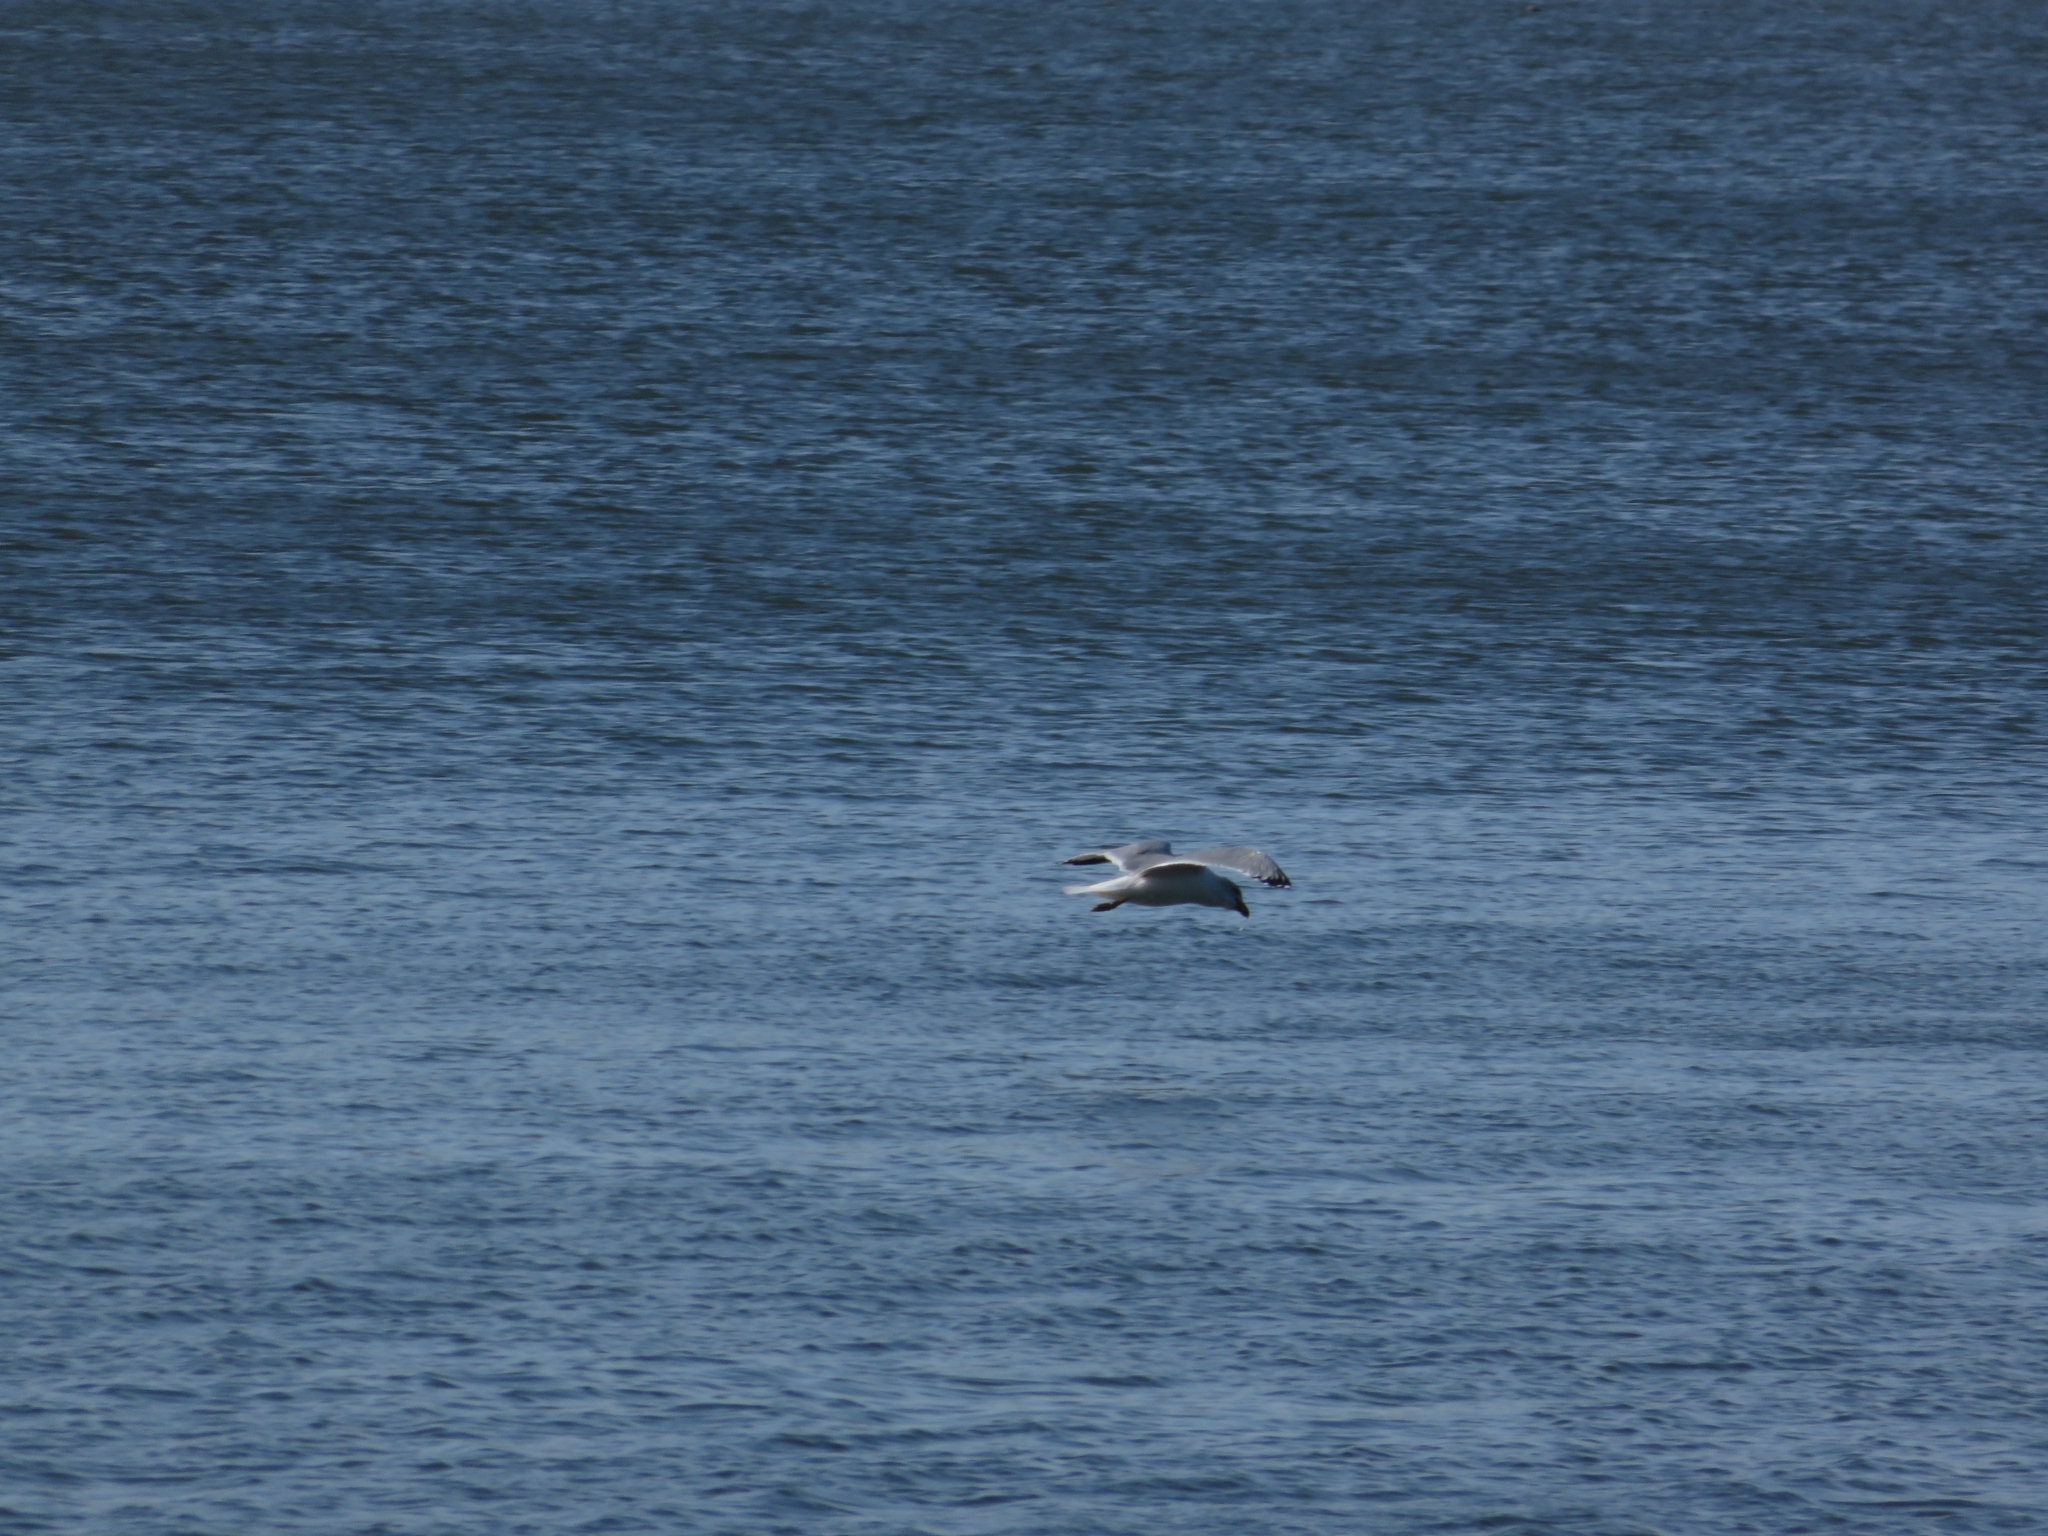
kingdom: Animalia
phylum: Chordata
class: Aves
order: Charadriiformes
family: Laridae
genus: Larus
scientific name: Larus delawarensis
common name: Ring-billed gull
